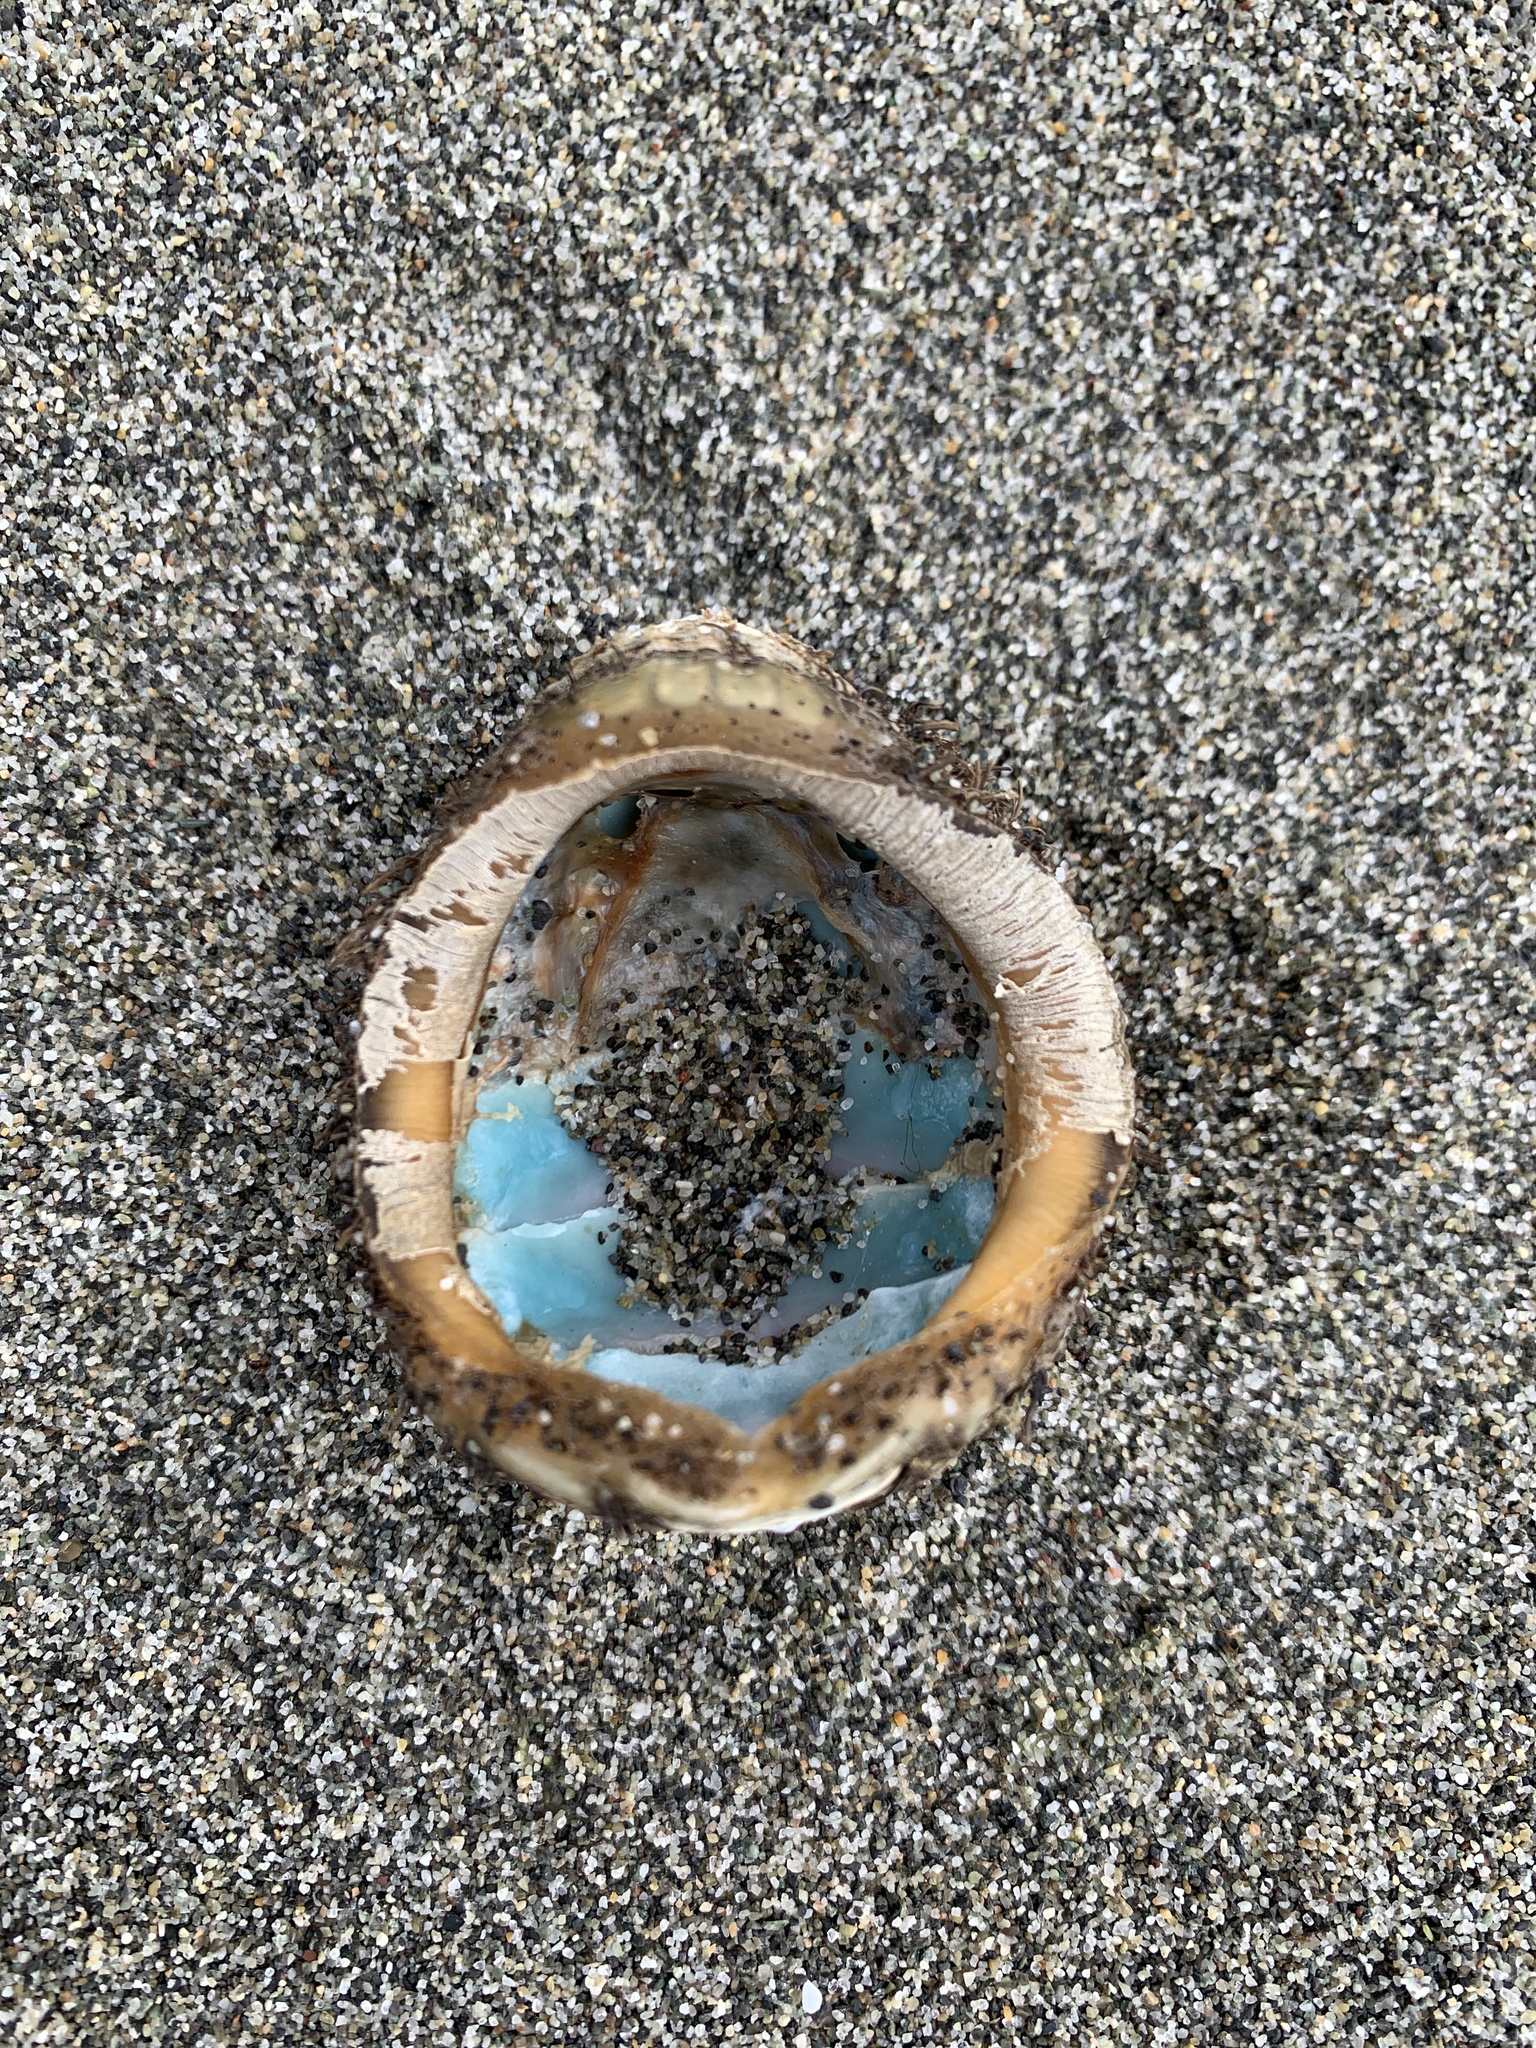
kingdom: Animalia
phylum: Mollusca
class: Polyplacophora
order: Chitonida
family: Mopaliidae
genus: Mopalia
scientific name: Mopalia muscosa
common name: Mossy chiton
